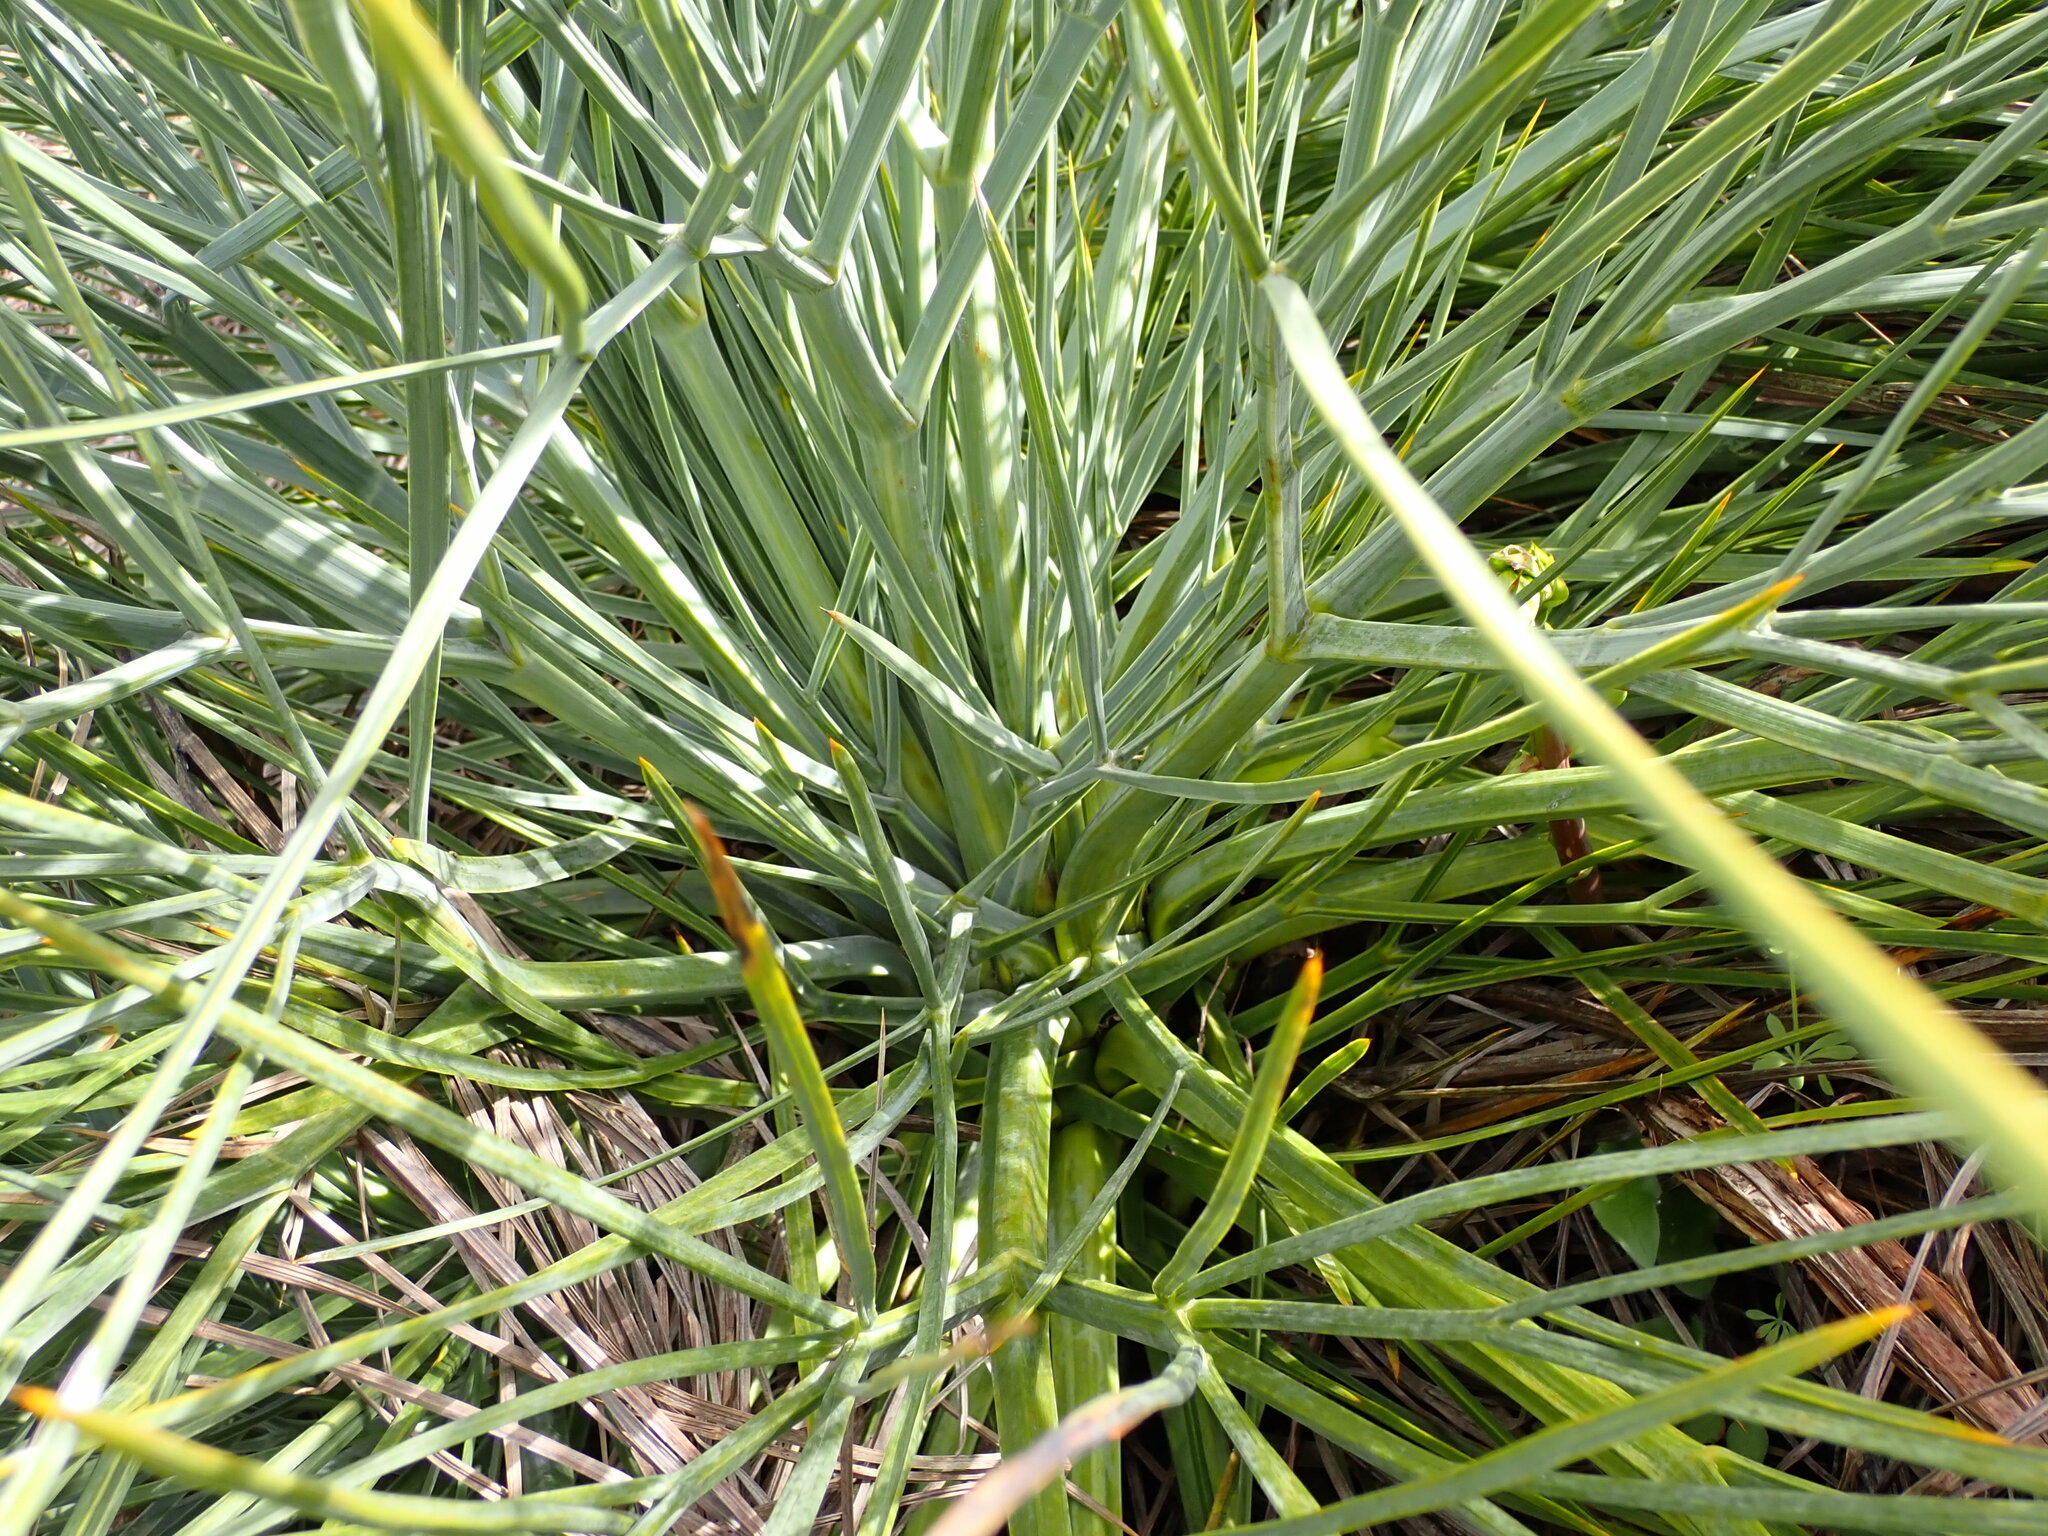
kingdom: Plantae
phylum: Tracheophyta
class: Magnoliopsida
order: Apiales
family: Apiaceae
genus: Aciphylla
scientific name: Aciphylla glaucescens
